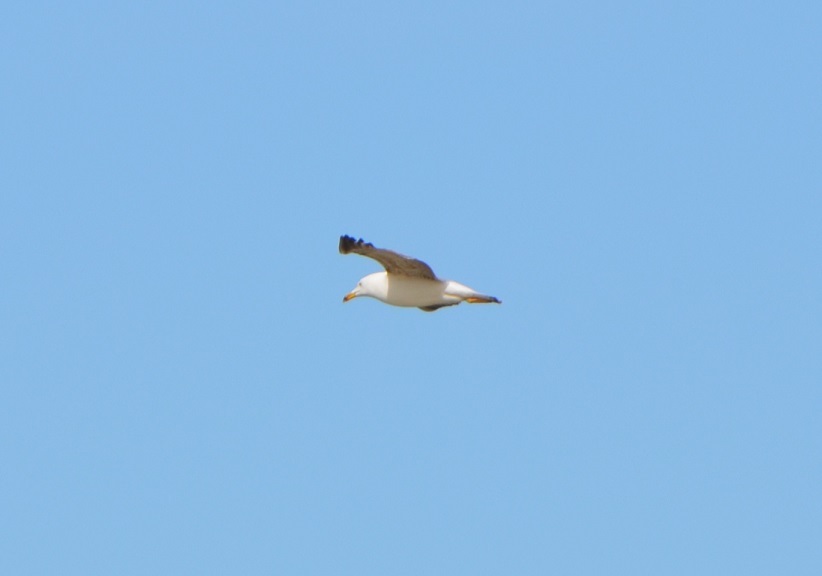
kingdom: Animalia
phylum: Chordata
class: Aves
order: Charadriiformes
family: Laridae
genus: Larus
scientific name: Larus michahellis
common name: Yellow-legged gull
